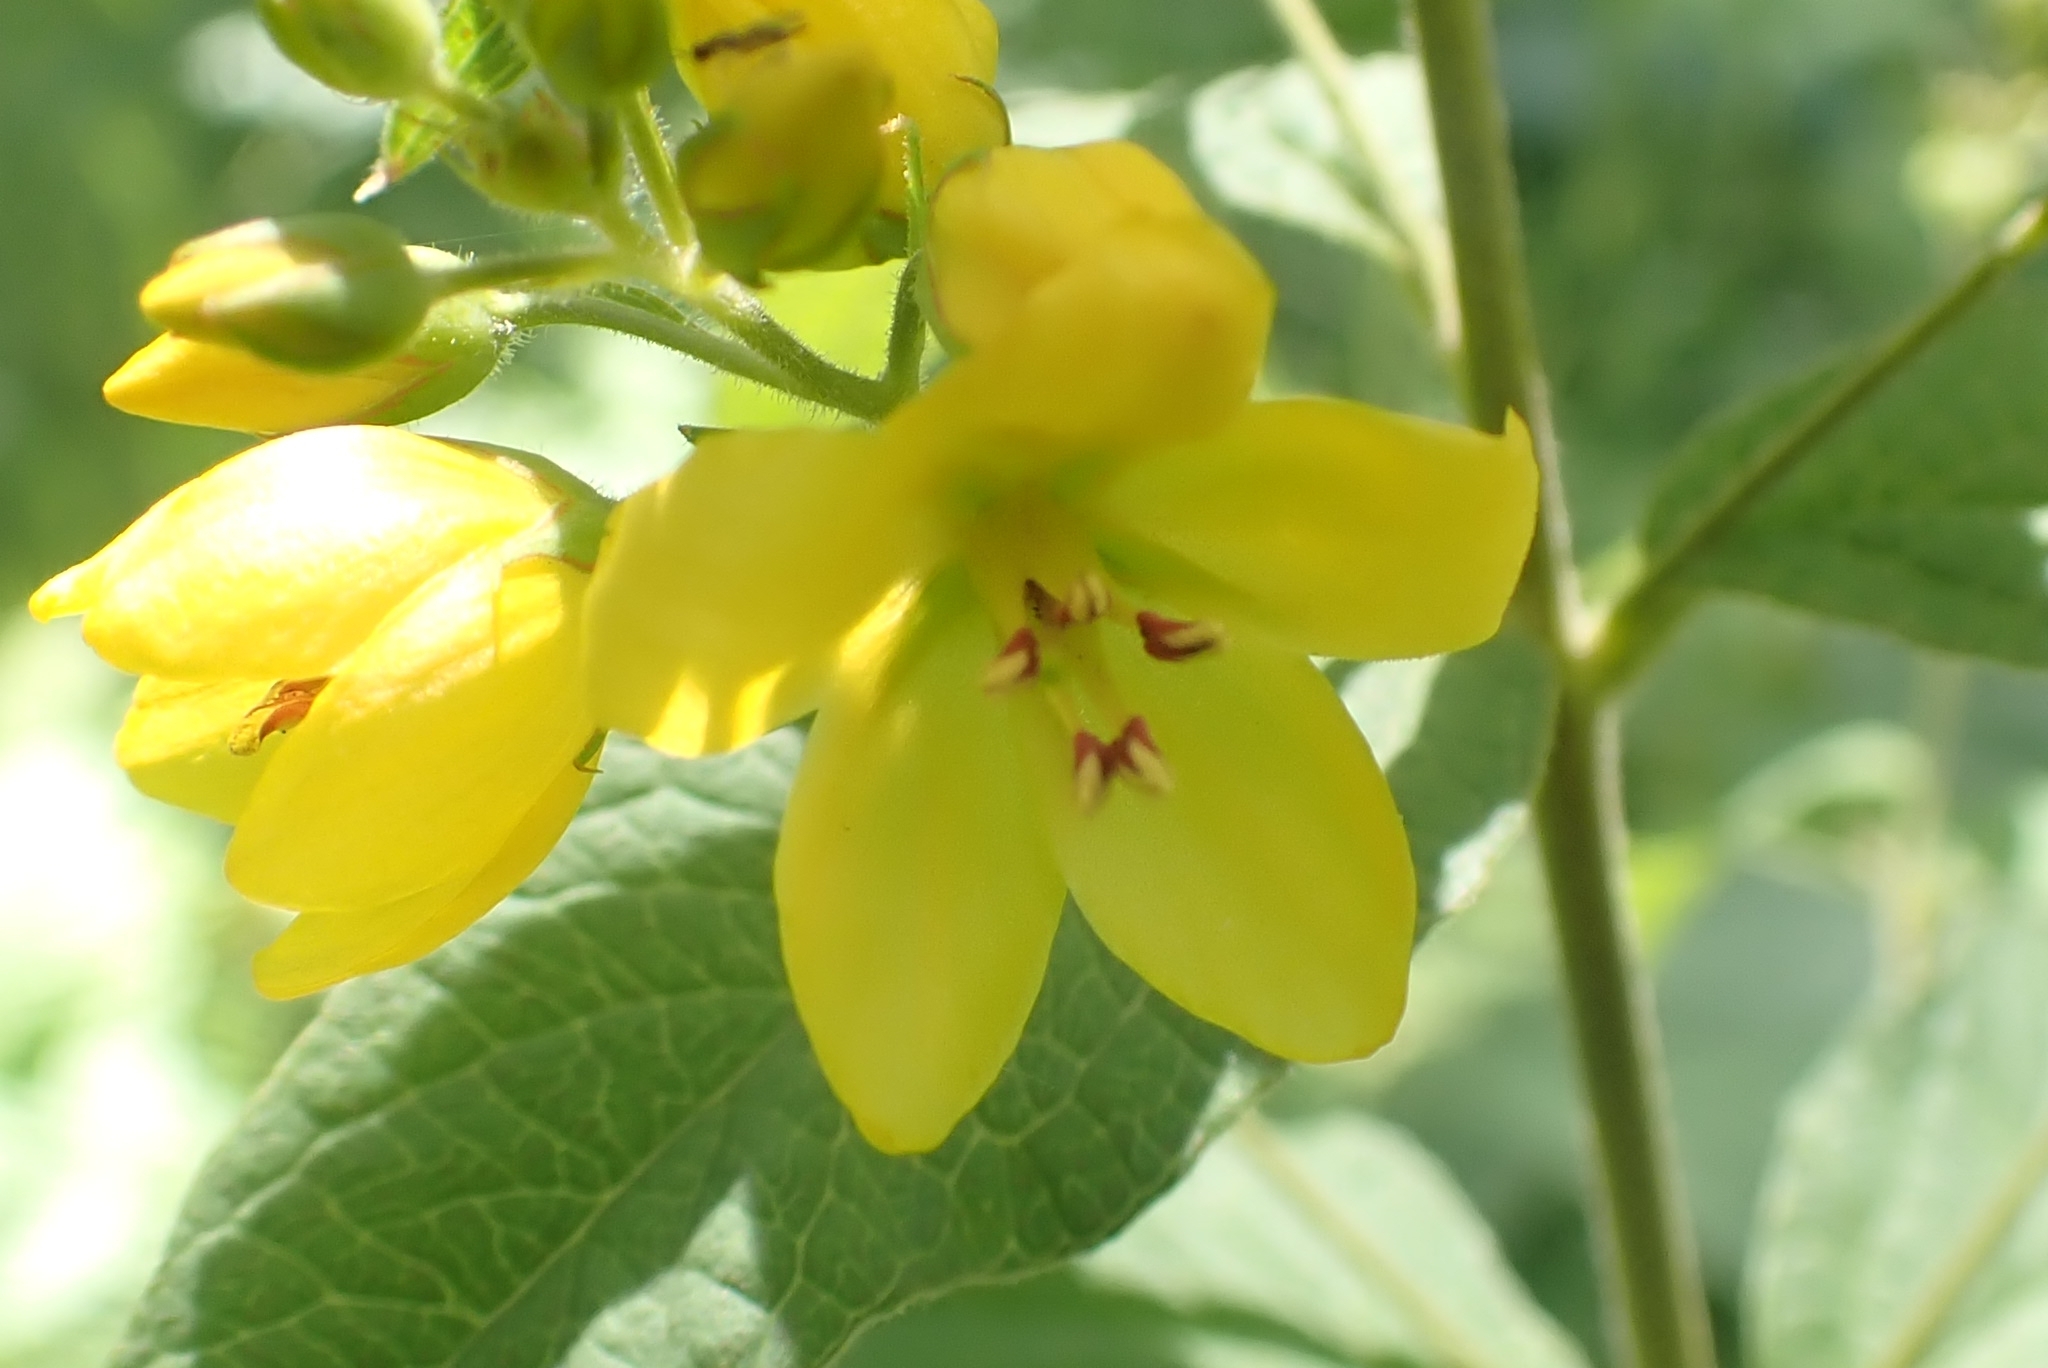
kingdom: Plantae
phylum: Tracheophyta
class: Magnoliopsida
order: Ericales
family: Primulaceae
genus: Lysimachia
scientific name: Lysimachia vulgaris
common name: Yellow loosestrife
